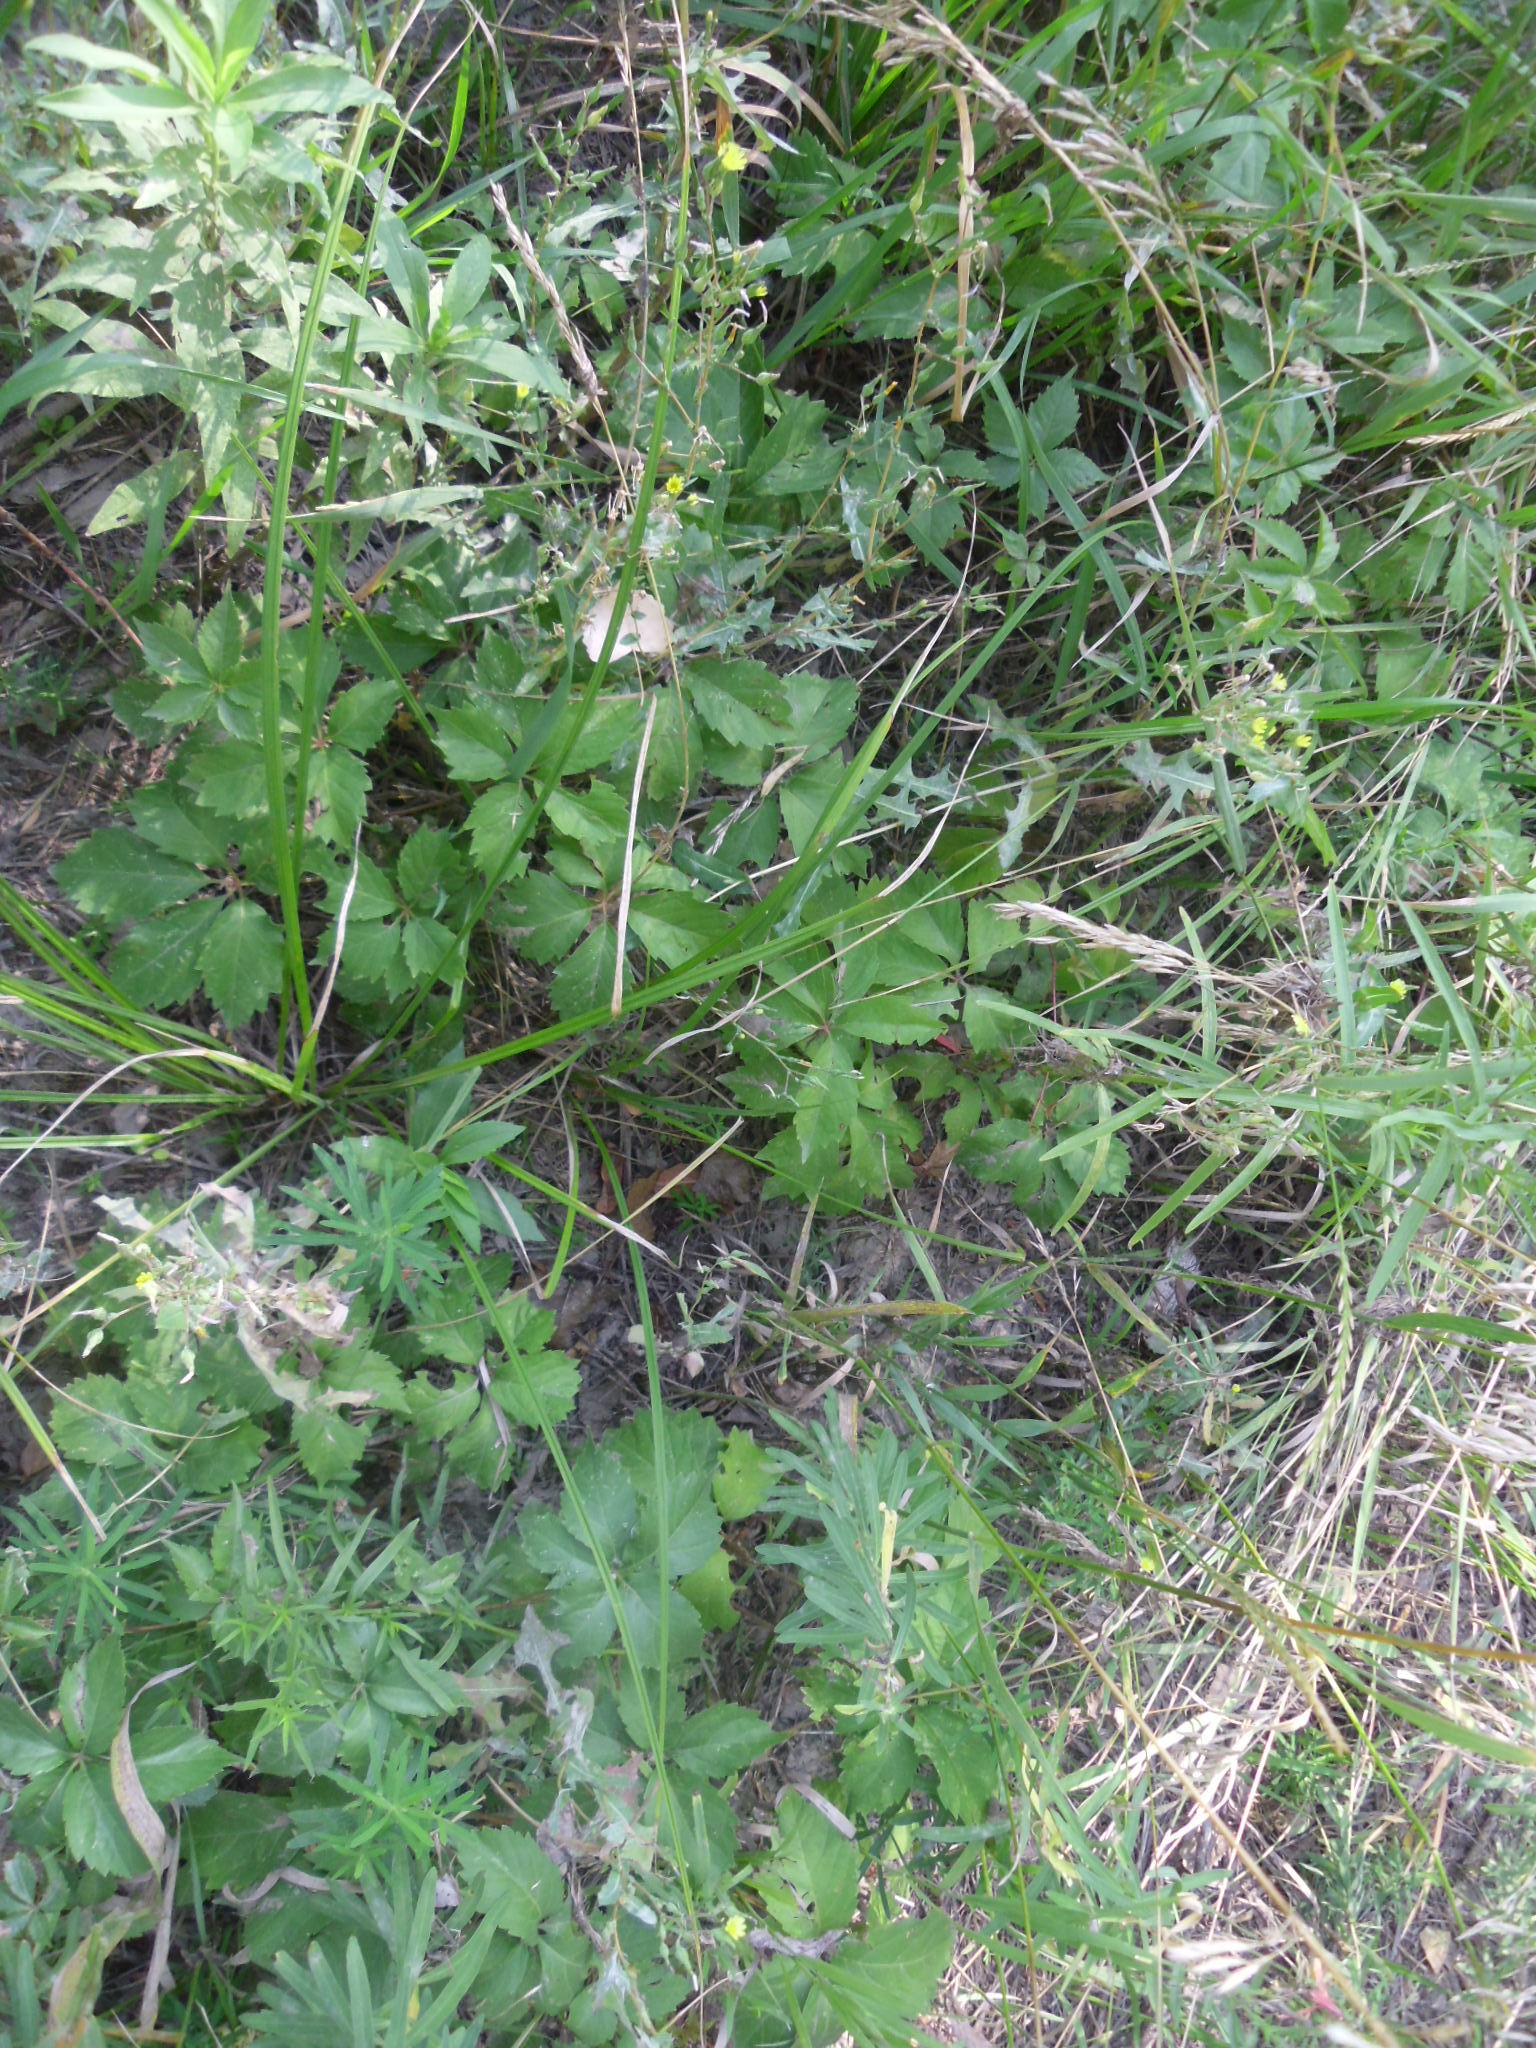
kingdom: Plantae
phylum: Tracheophyta
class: Magnoliopsida
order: Vitales
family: Vitaceae
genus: Parthenocissus
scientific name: Parthenocissus quinquefolia
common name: Virginia-creeper
